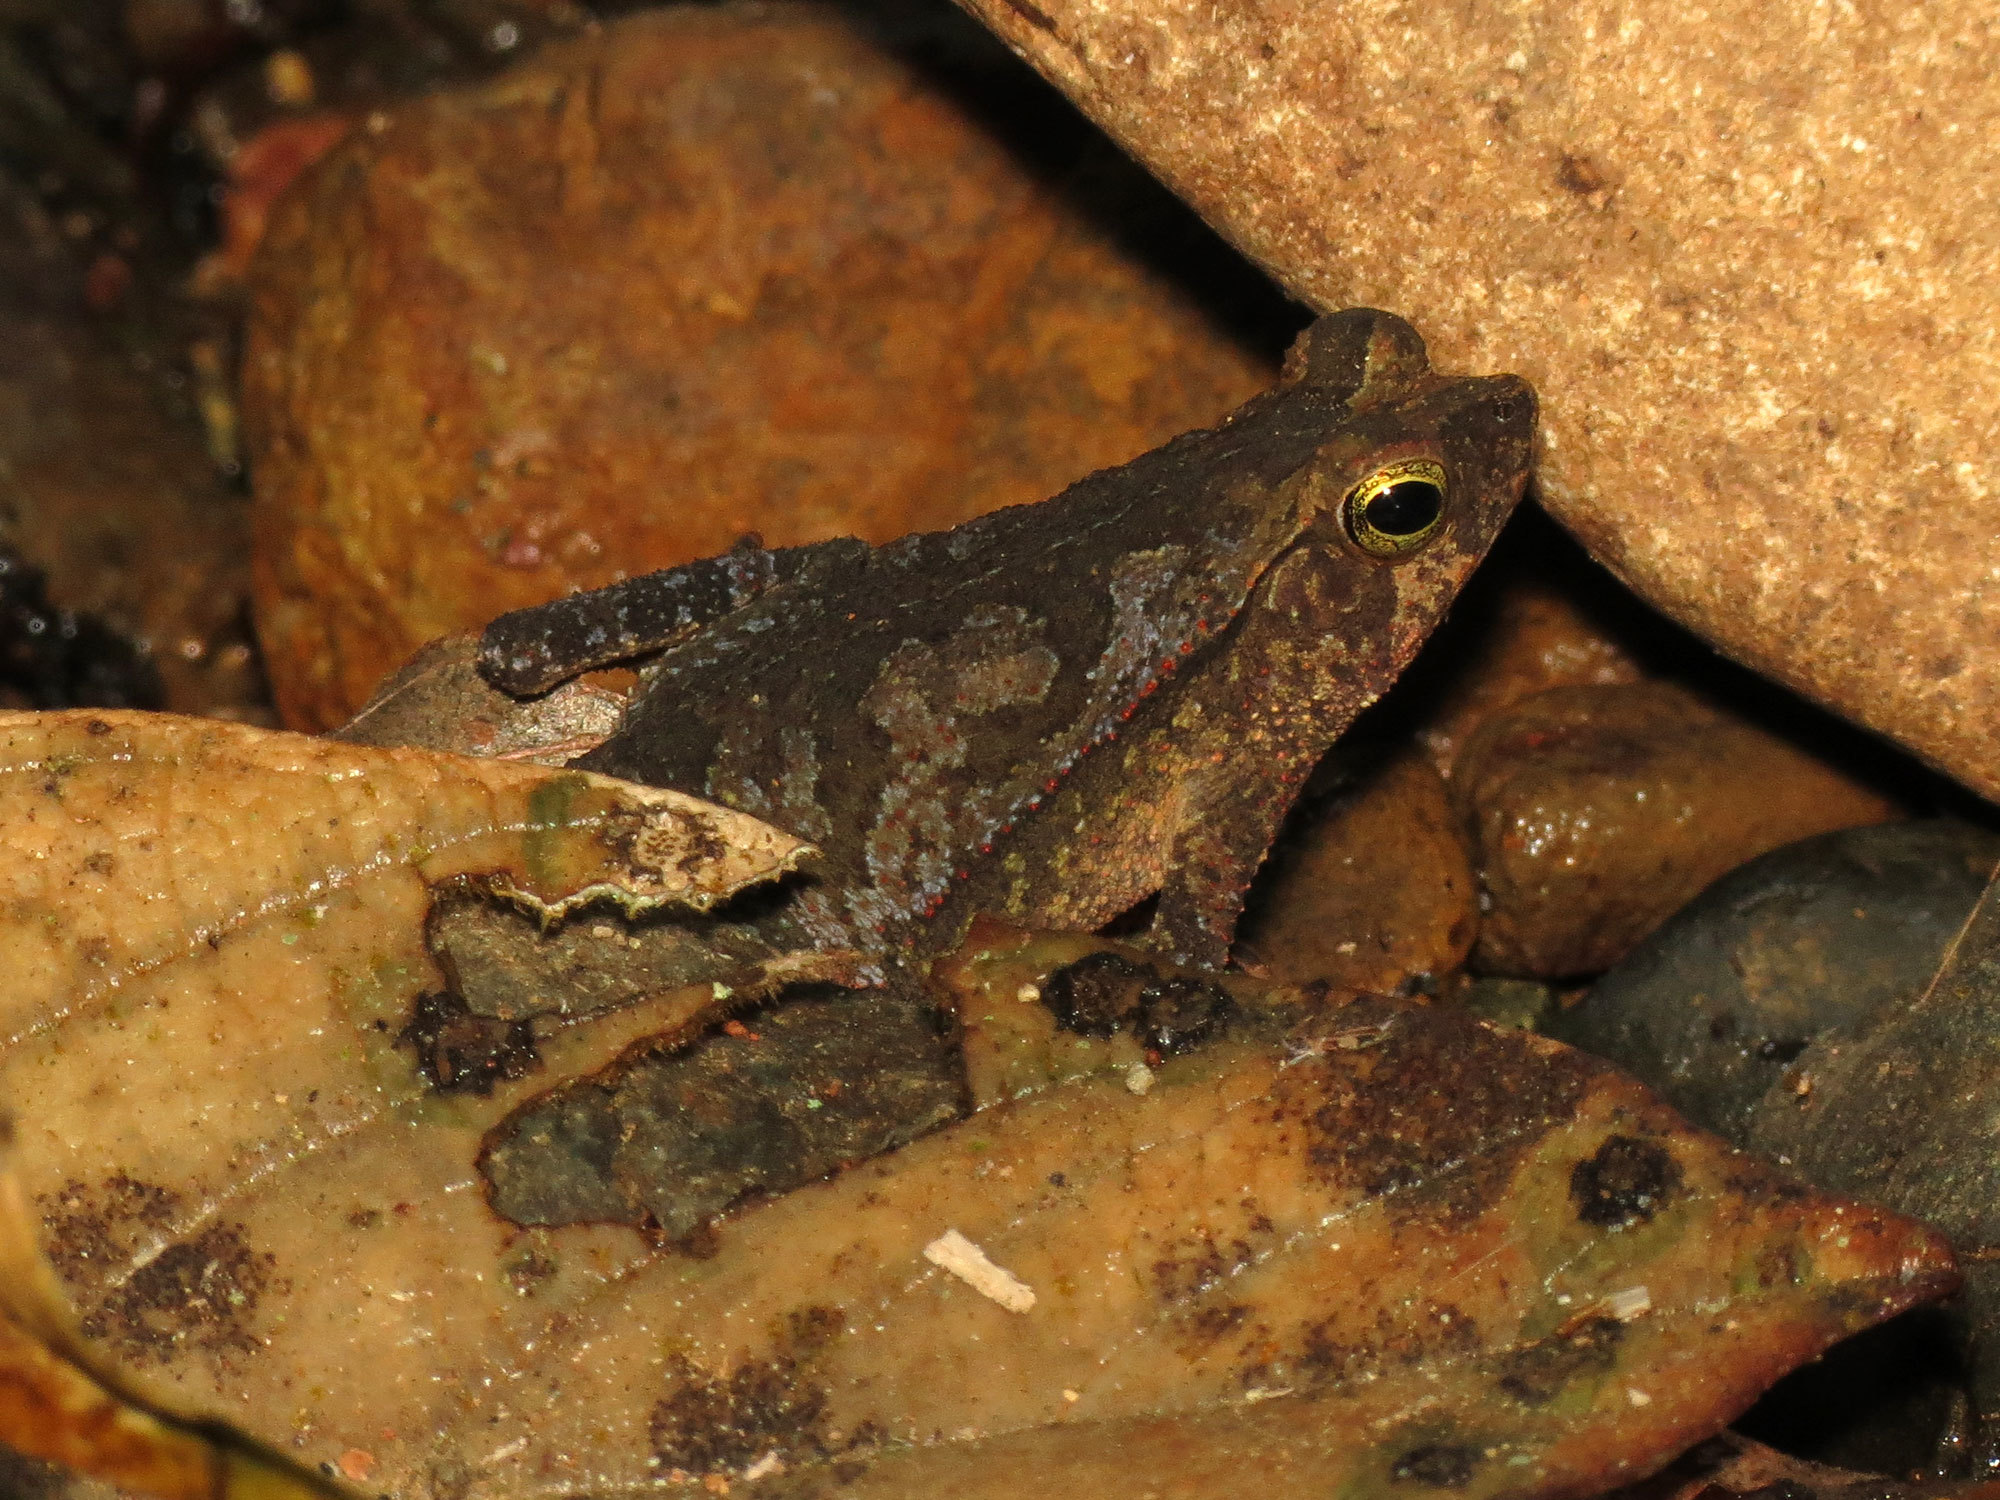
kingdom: Animalia
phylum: Chordata
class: Amphibia
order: Anura
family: Bufonidae
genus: Rhinella
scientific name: Rhinella alata
